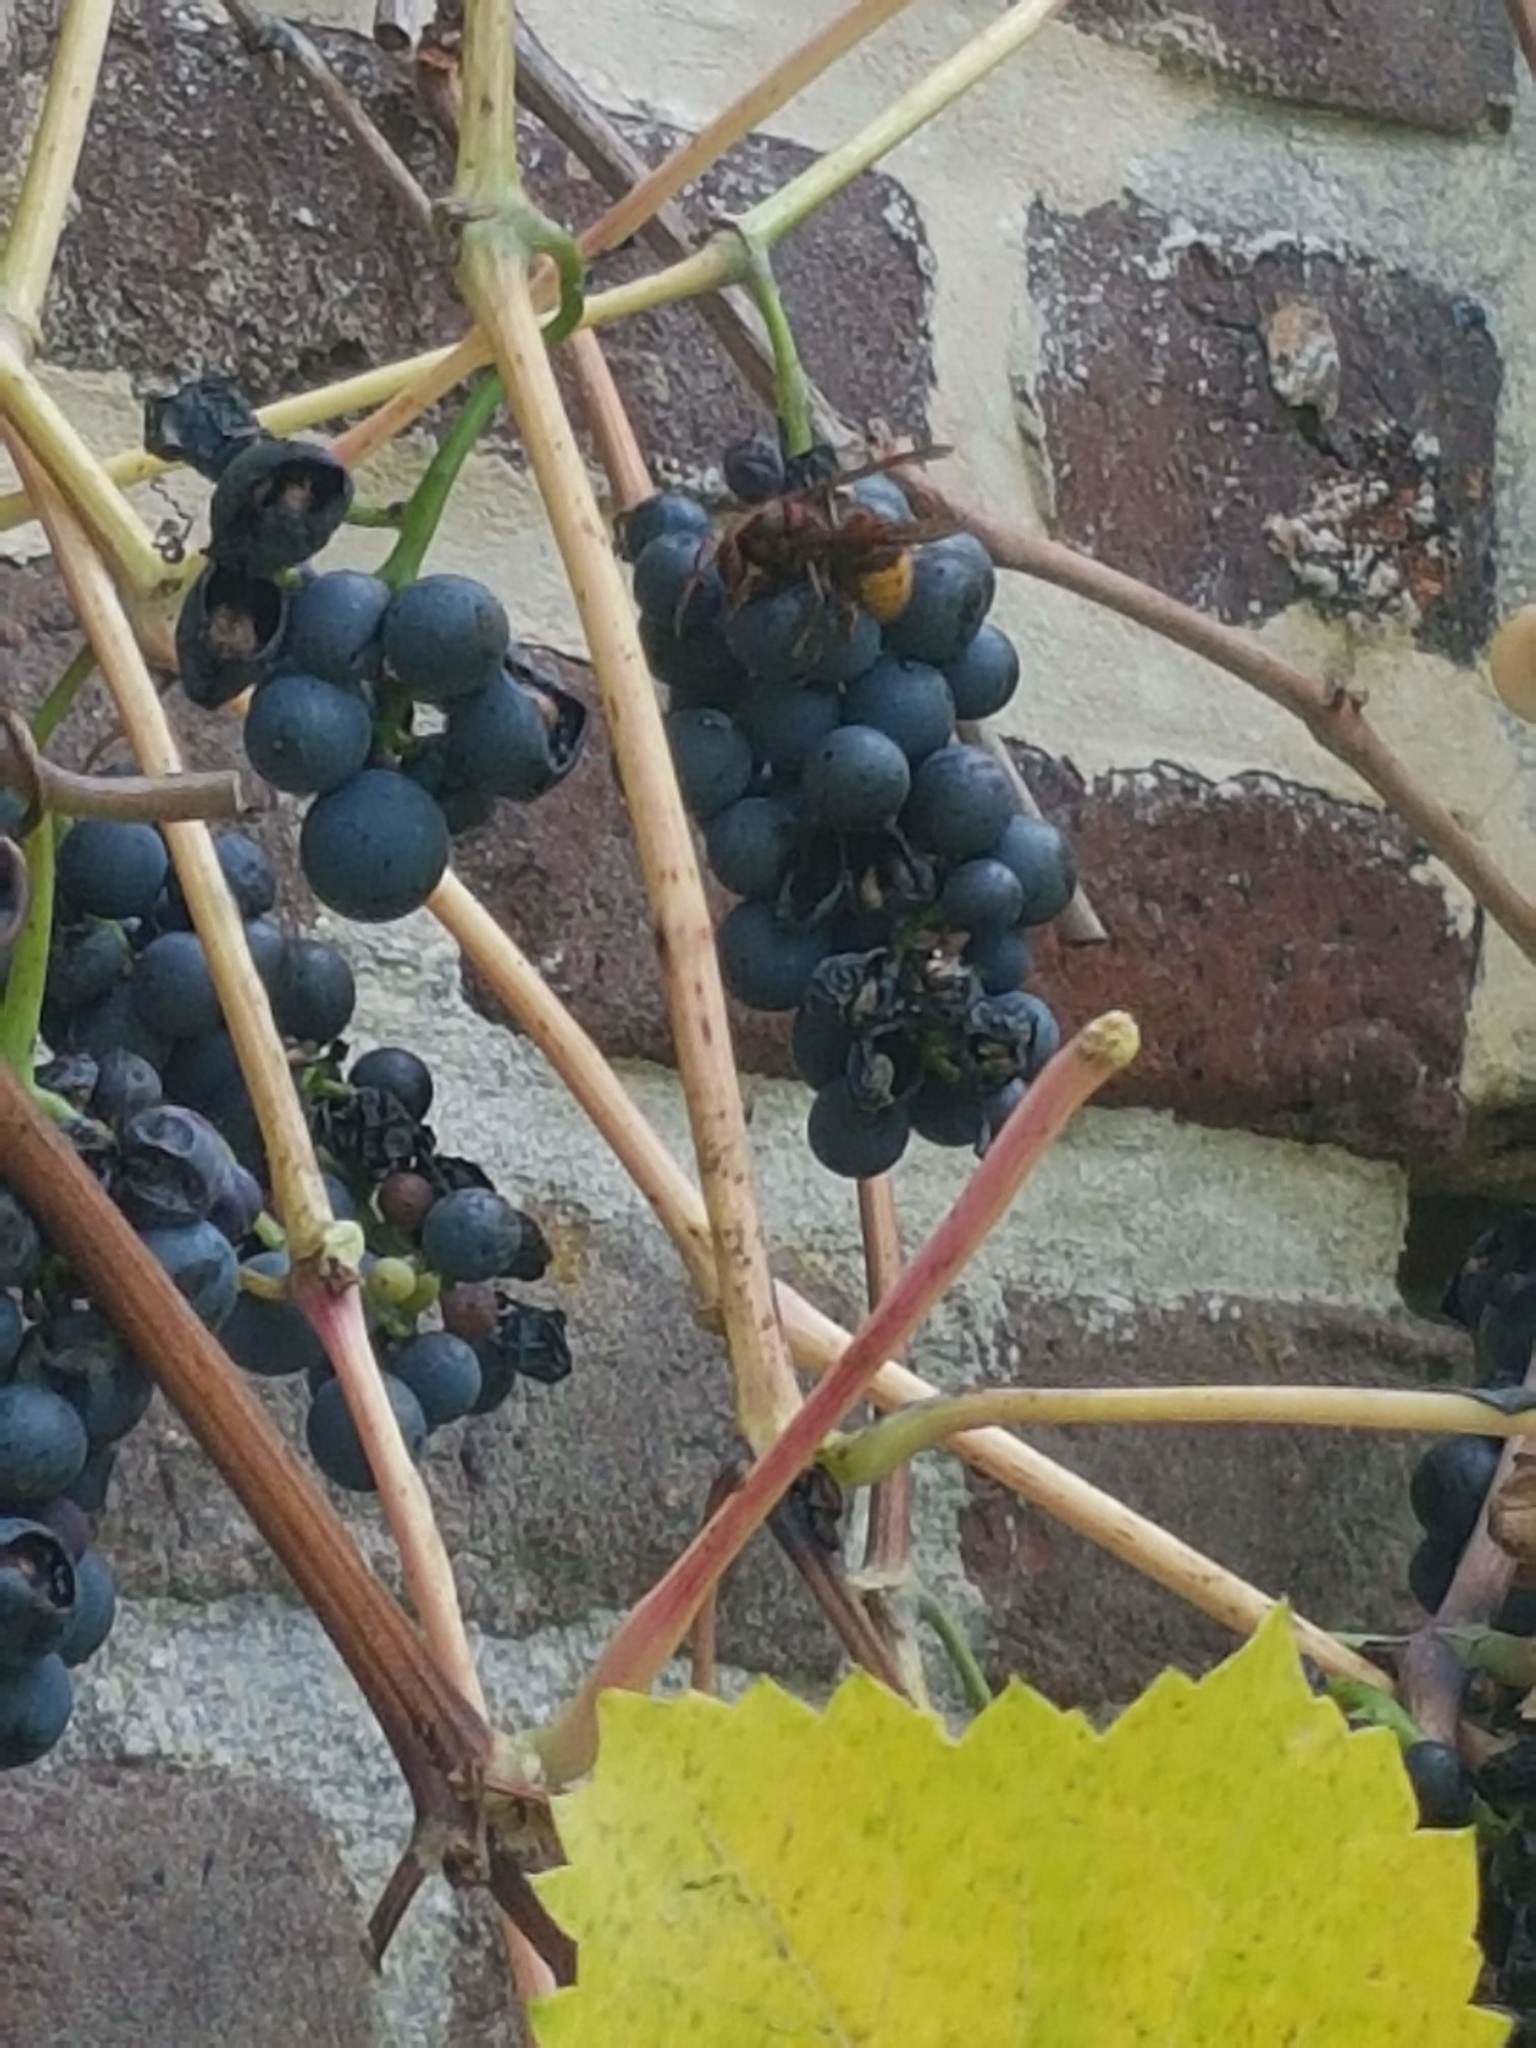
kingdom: Animalia
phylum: Arthropoda
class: Insecta
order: Hymenoptera
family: Vespidae
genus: Vespa
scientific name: Vespa crabro
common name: Hornet
